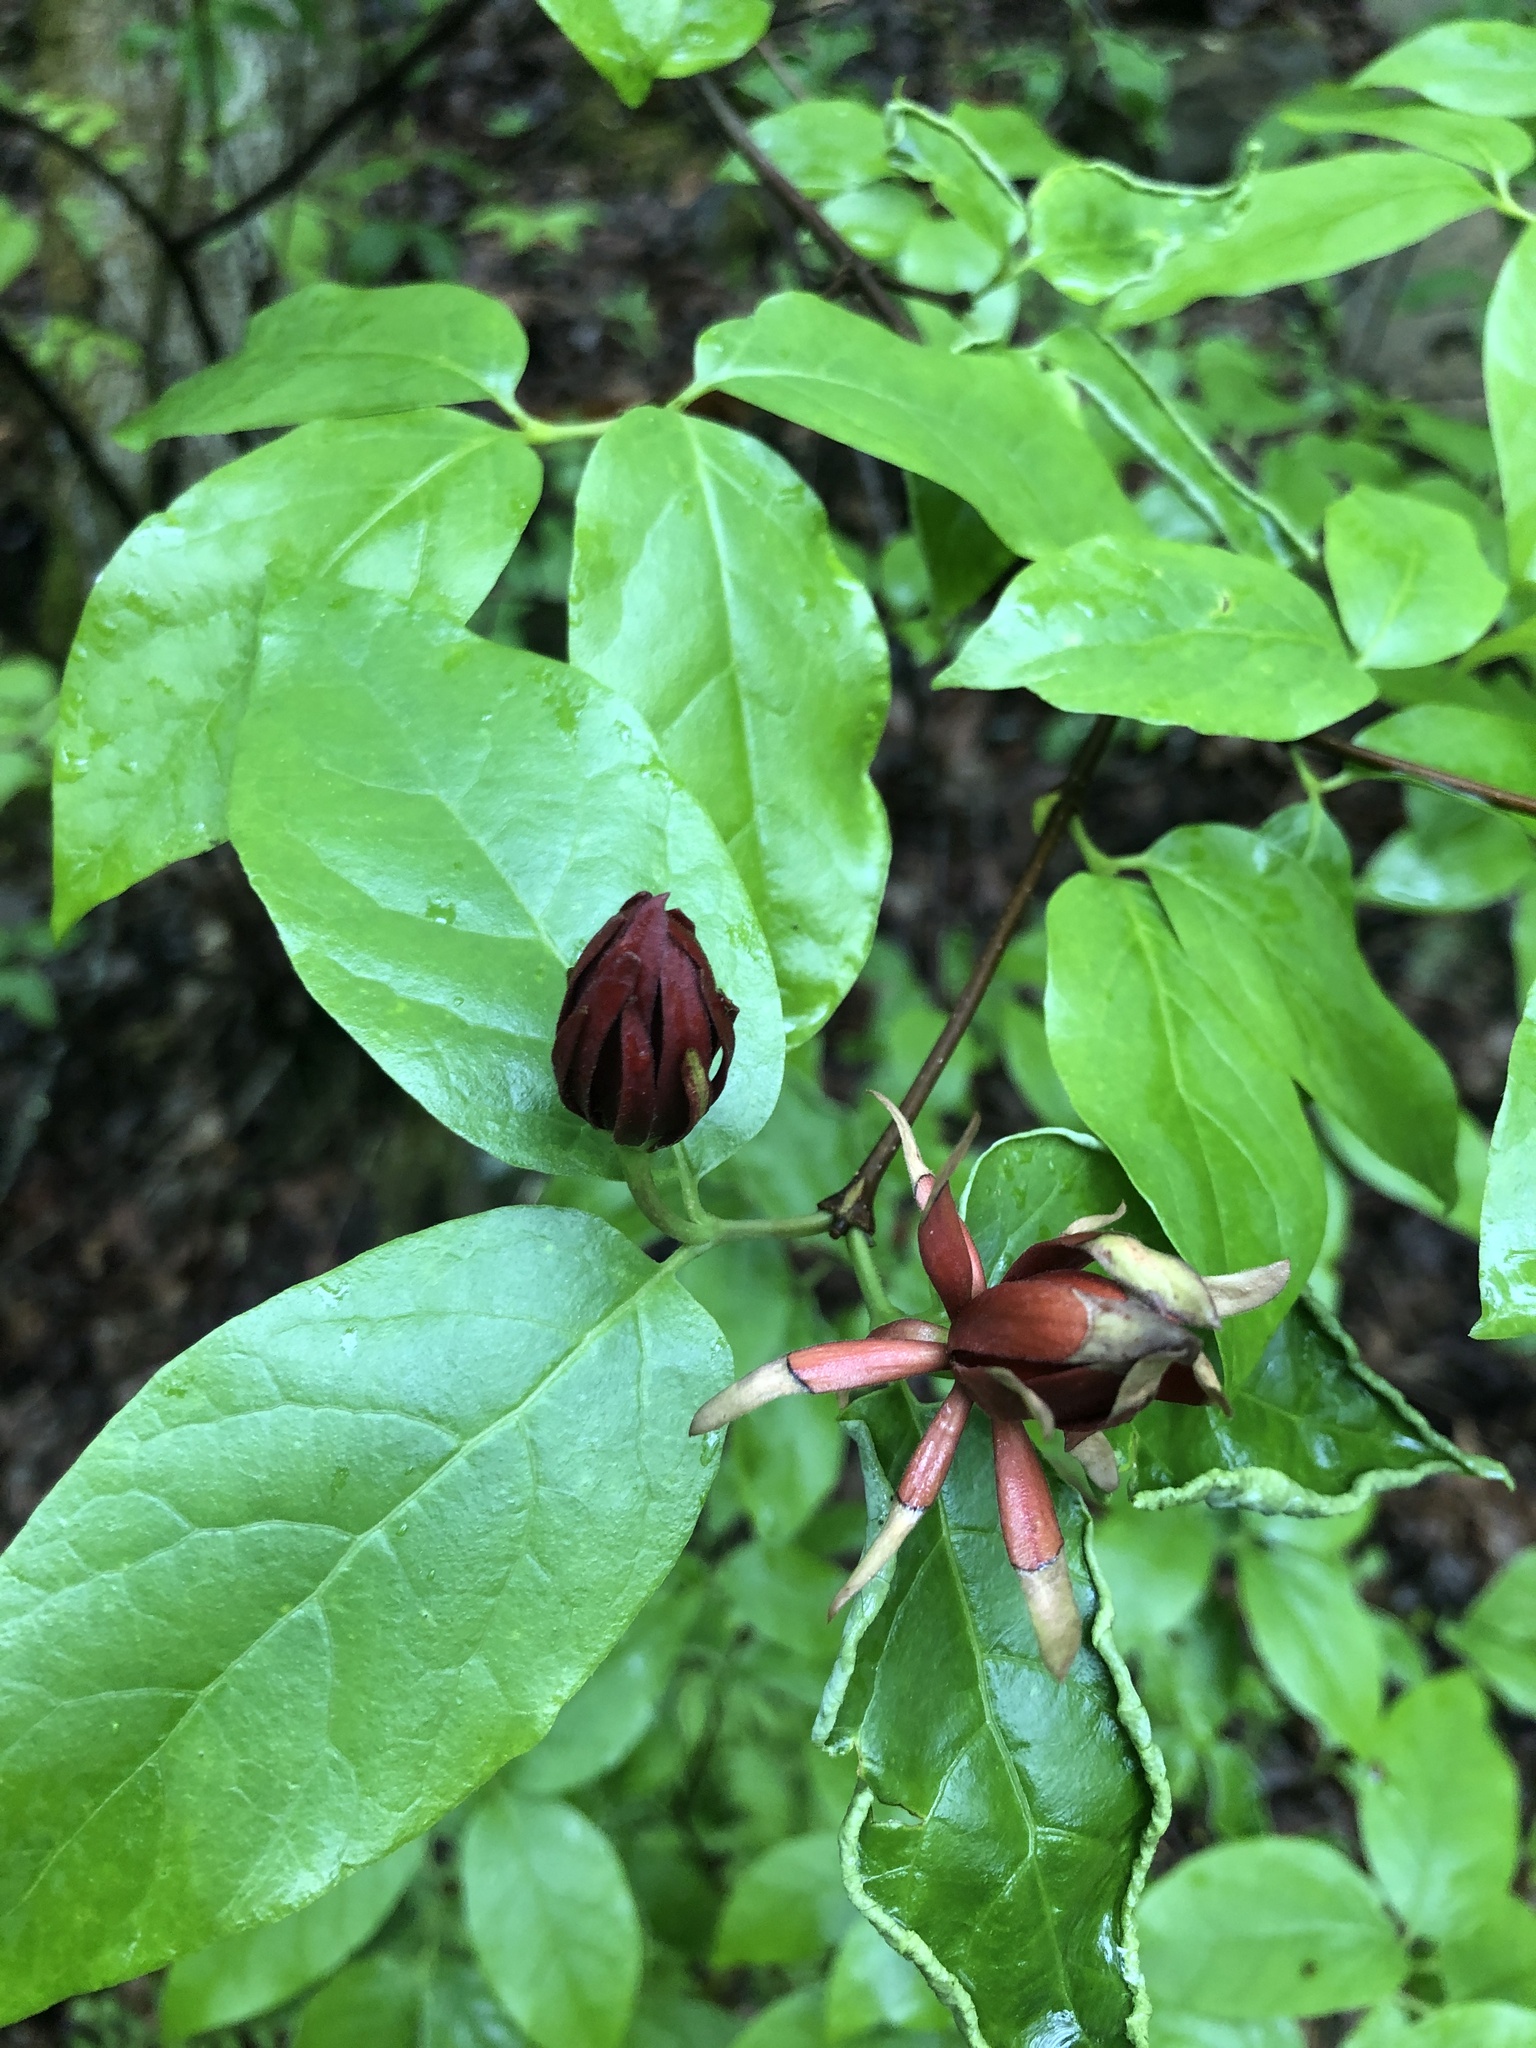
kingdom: Plantae
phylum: Tracheophyta
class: Magnoliopsida
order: Laurales
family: Calycanthaceae
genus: Calycanthus
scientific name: Calycanthus floridus
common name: Carolina-allspice
